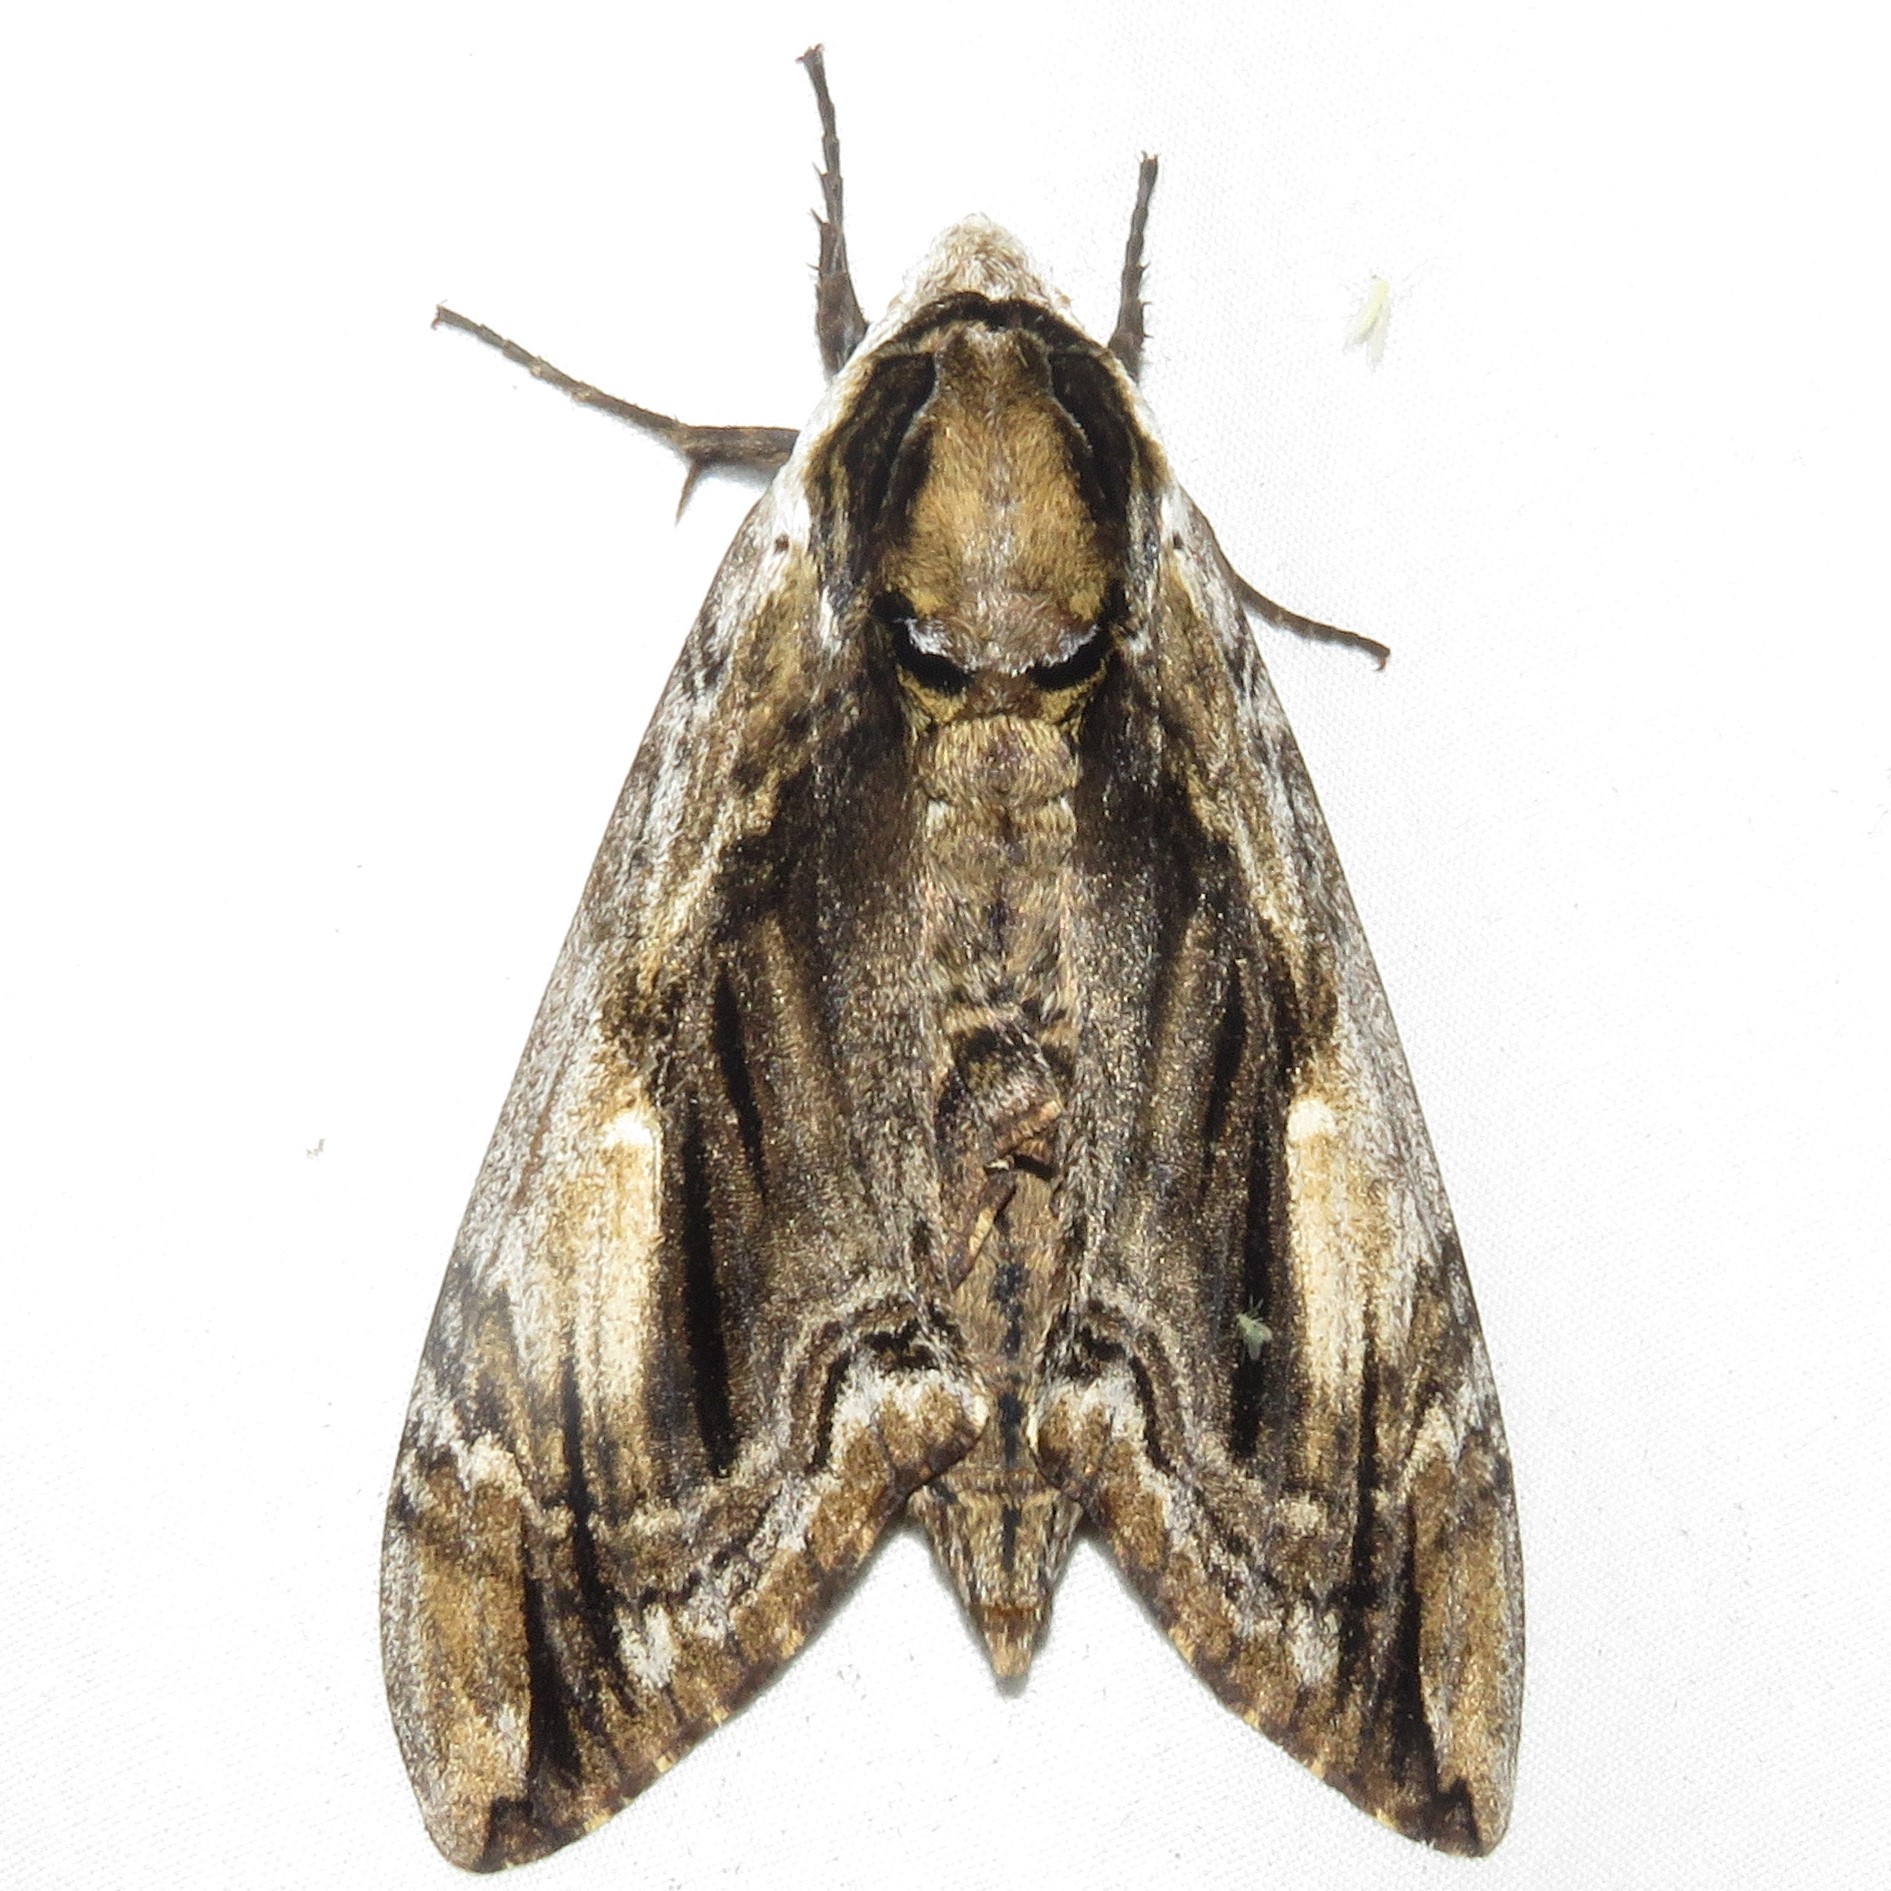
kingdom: Animalia
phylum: Arthropoda
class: Insecta
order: Lepidoptera
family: Sphingidae
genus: Ceratomia
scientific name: Ceratomia amyntor
